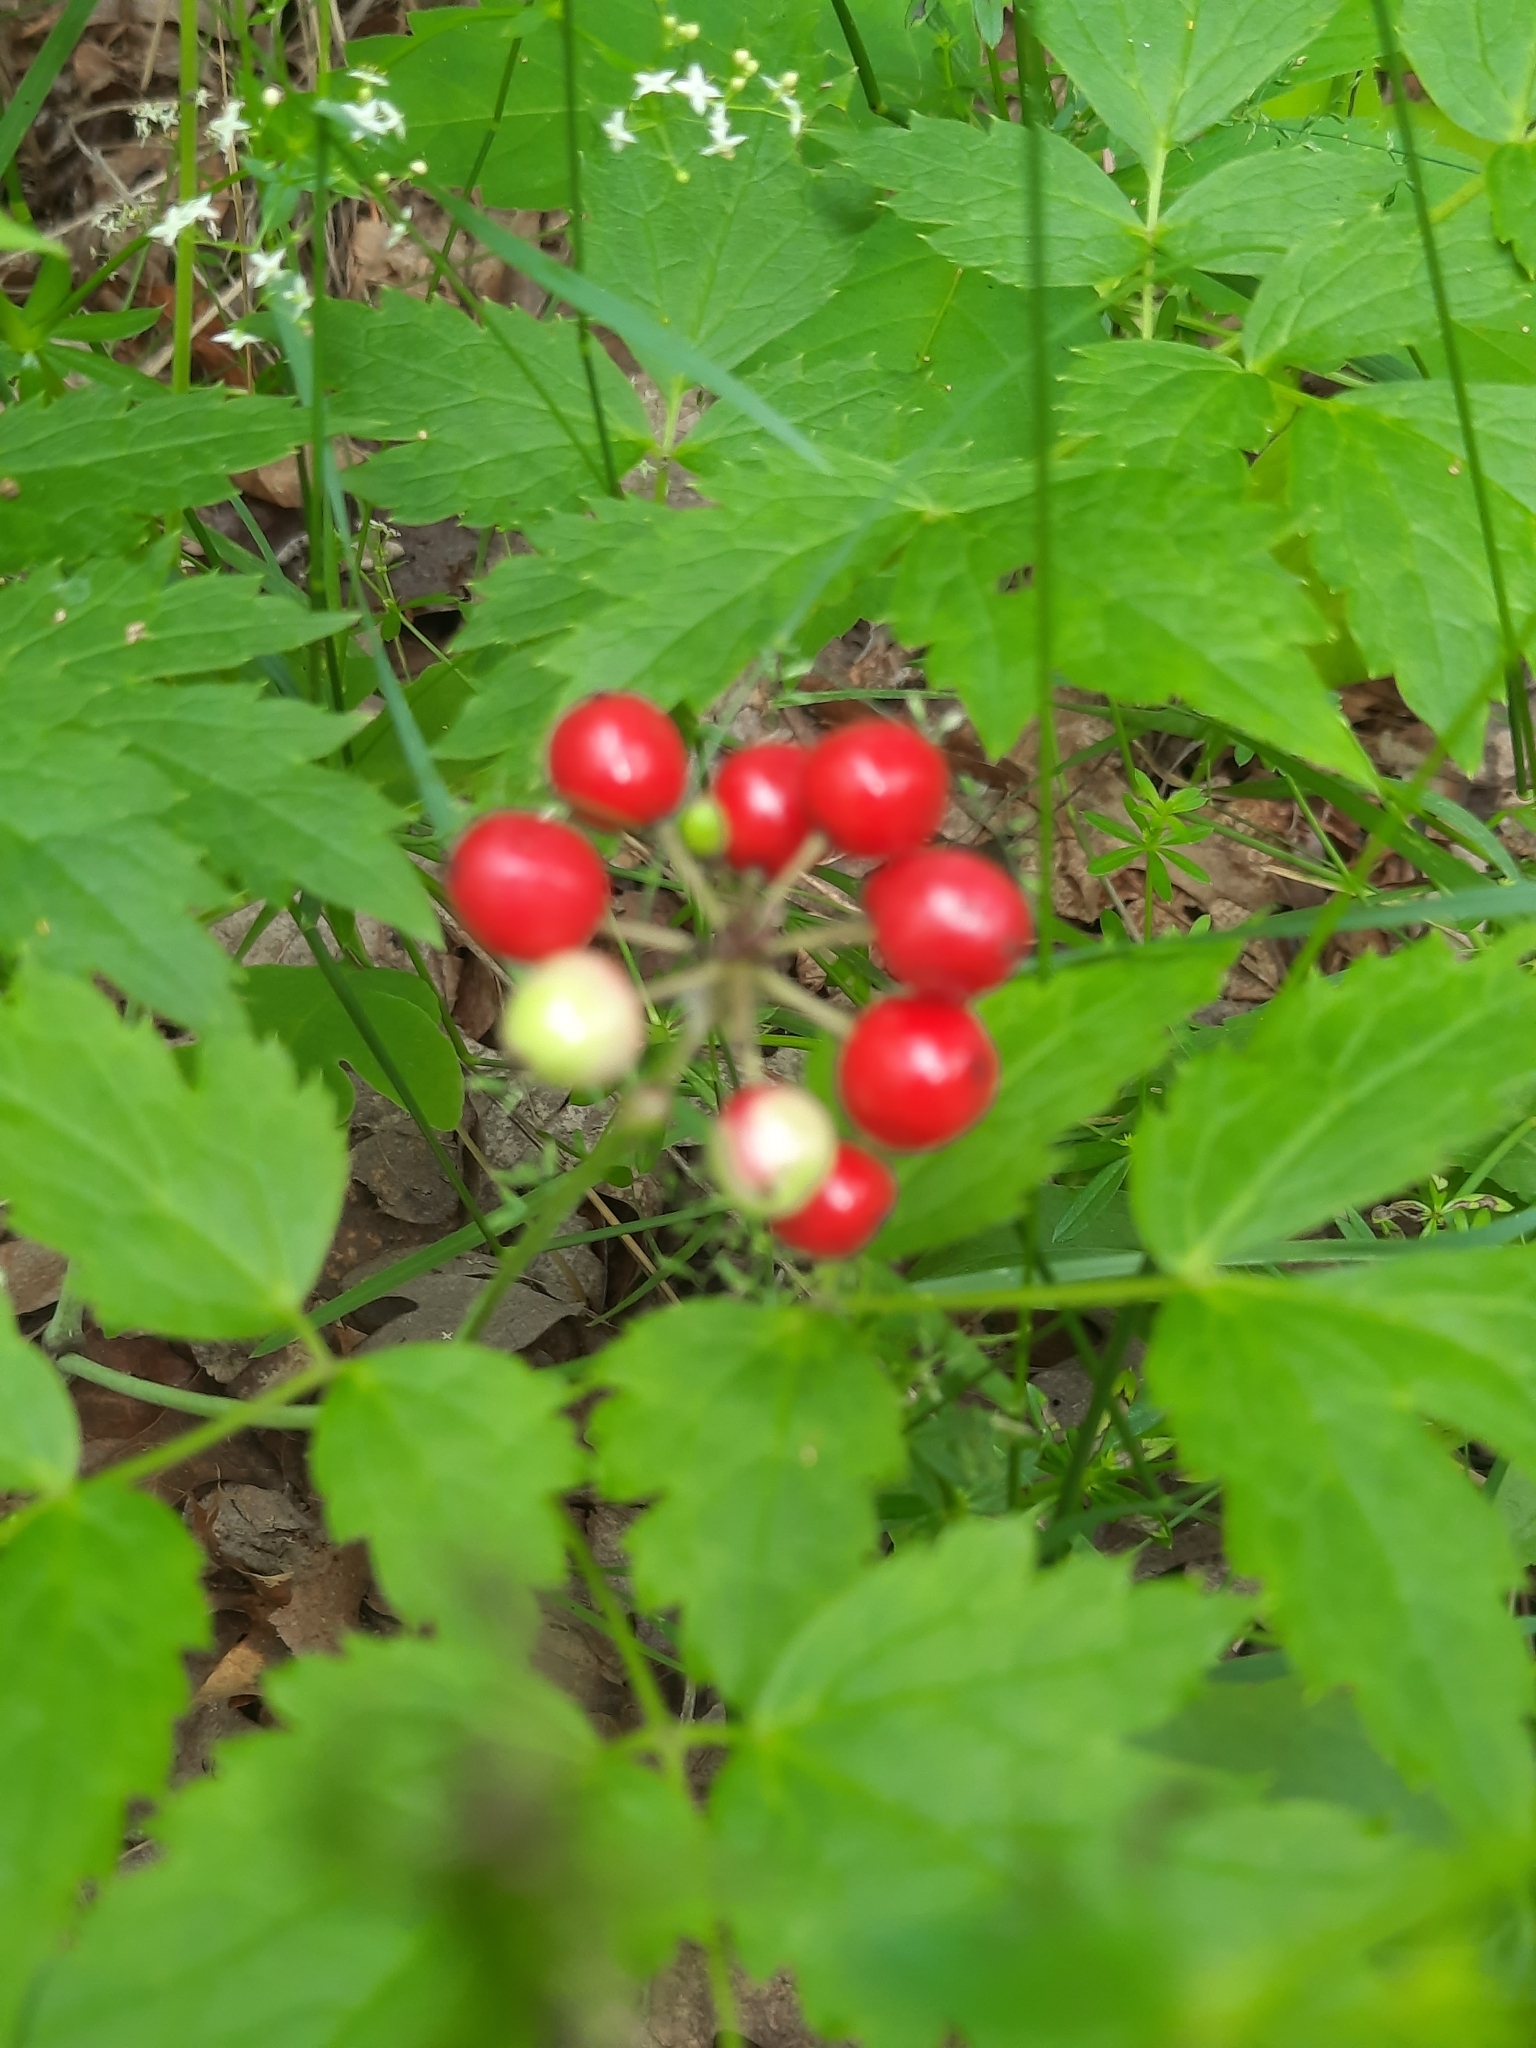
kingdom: Plantae
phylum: Tracheophyta
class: Magnoliopsida
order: Ranunculales
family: Ranunculaceae
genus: Actaea
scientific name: Actaea rubra
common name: Red baneberry
